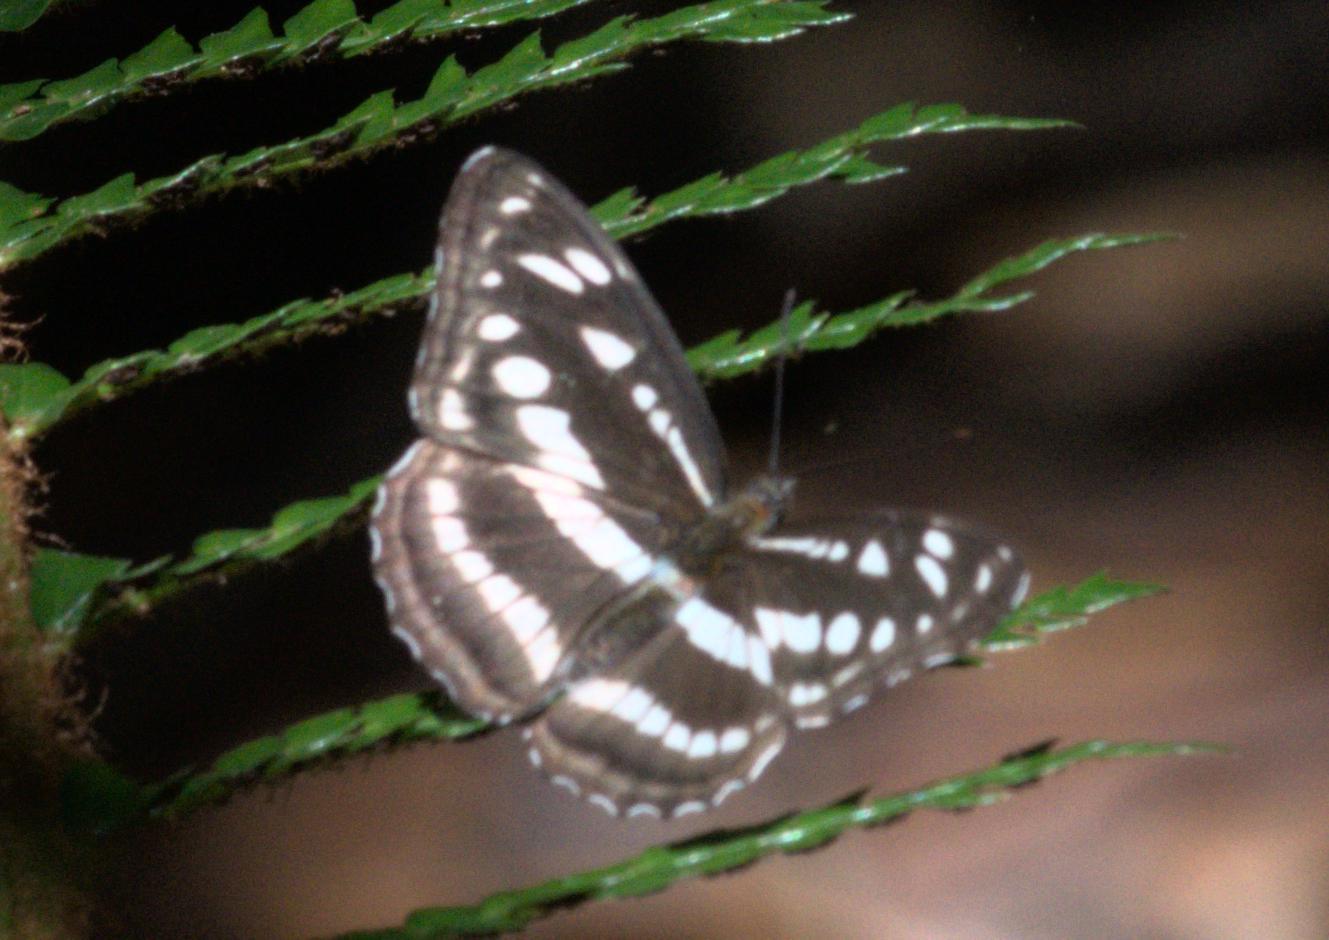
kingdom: Animalia
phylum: Arthropoda
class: Insecta
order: Lepidoptera
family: Nymphalidae
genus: Parathyma
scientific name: Parathyma opalina
